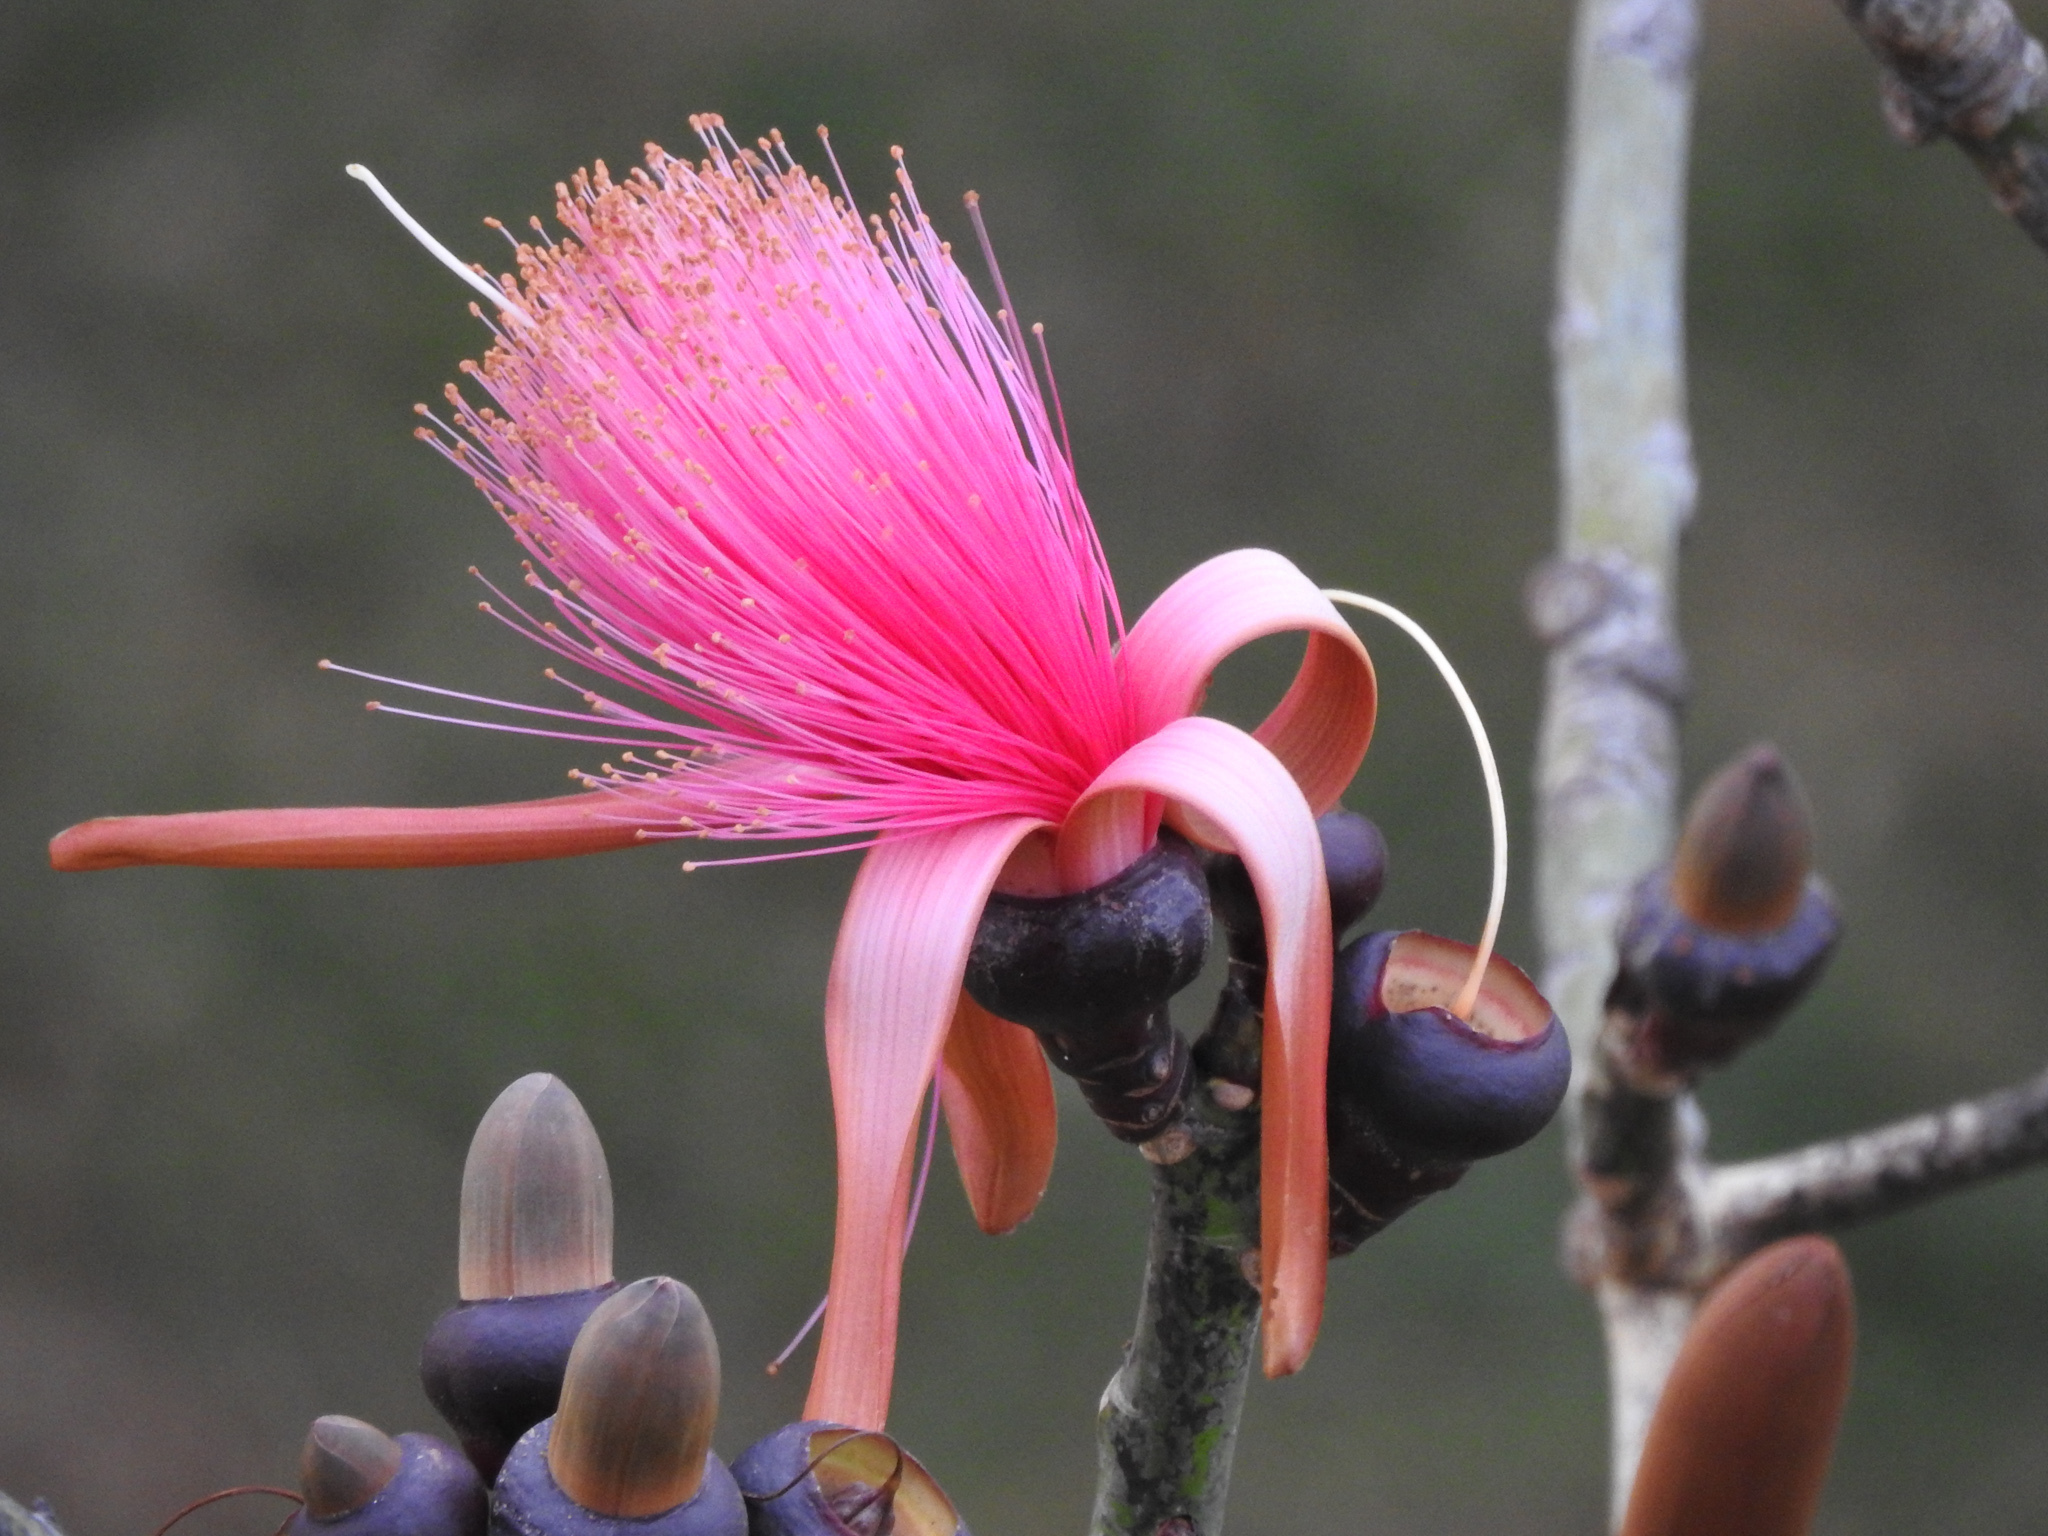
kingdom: Plantae
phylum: Tracheophyta
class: Magnoliopsida
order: Malvales
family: Malvaceae
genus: Pseudobombax
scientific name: Pseudobombax ellipticum
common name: Shaving-brush-tree
